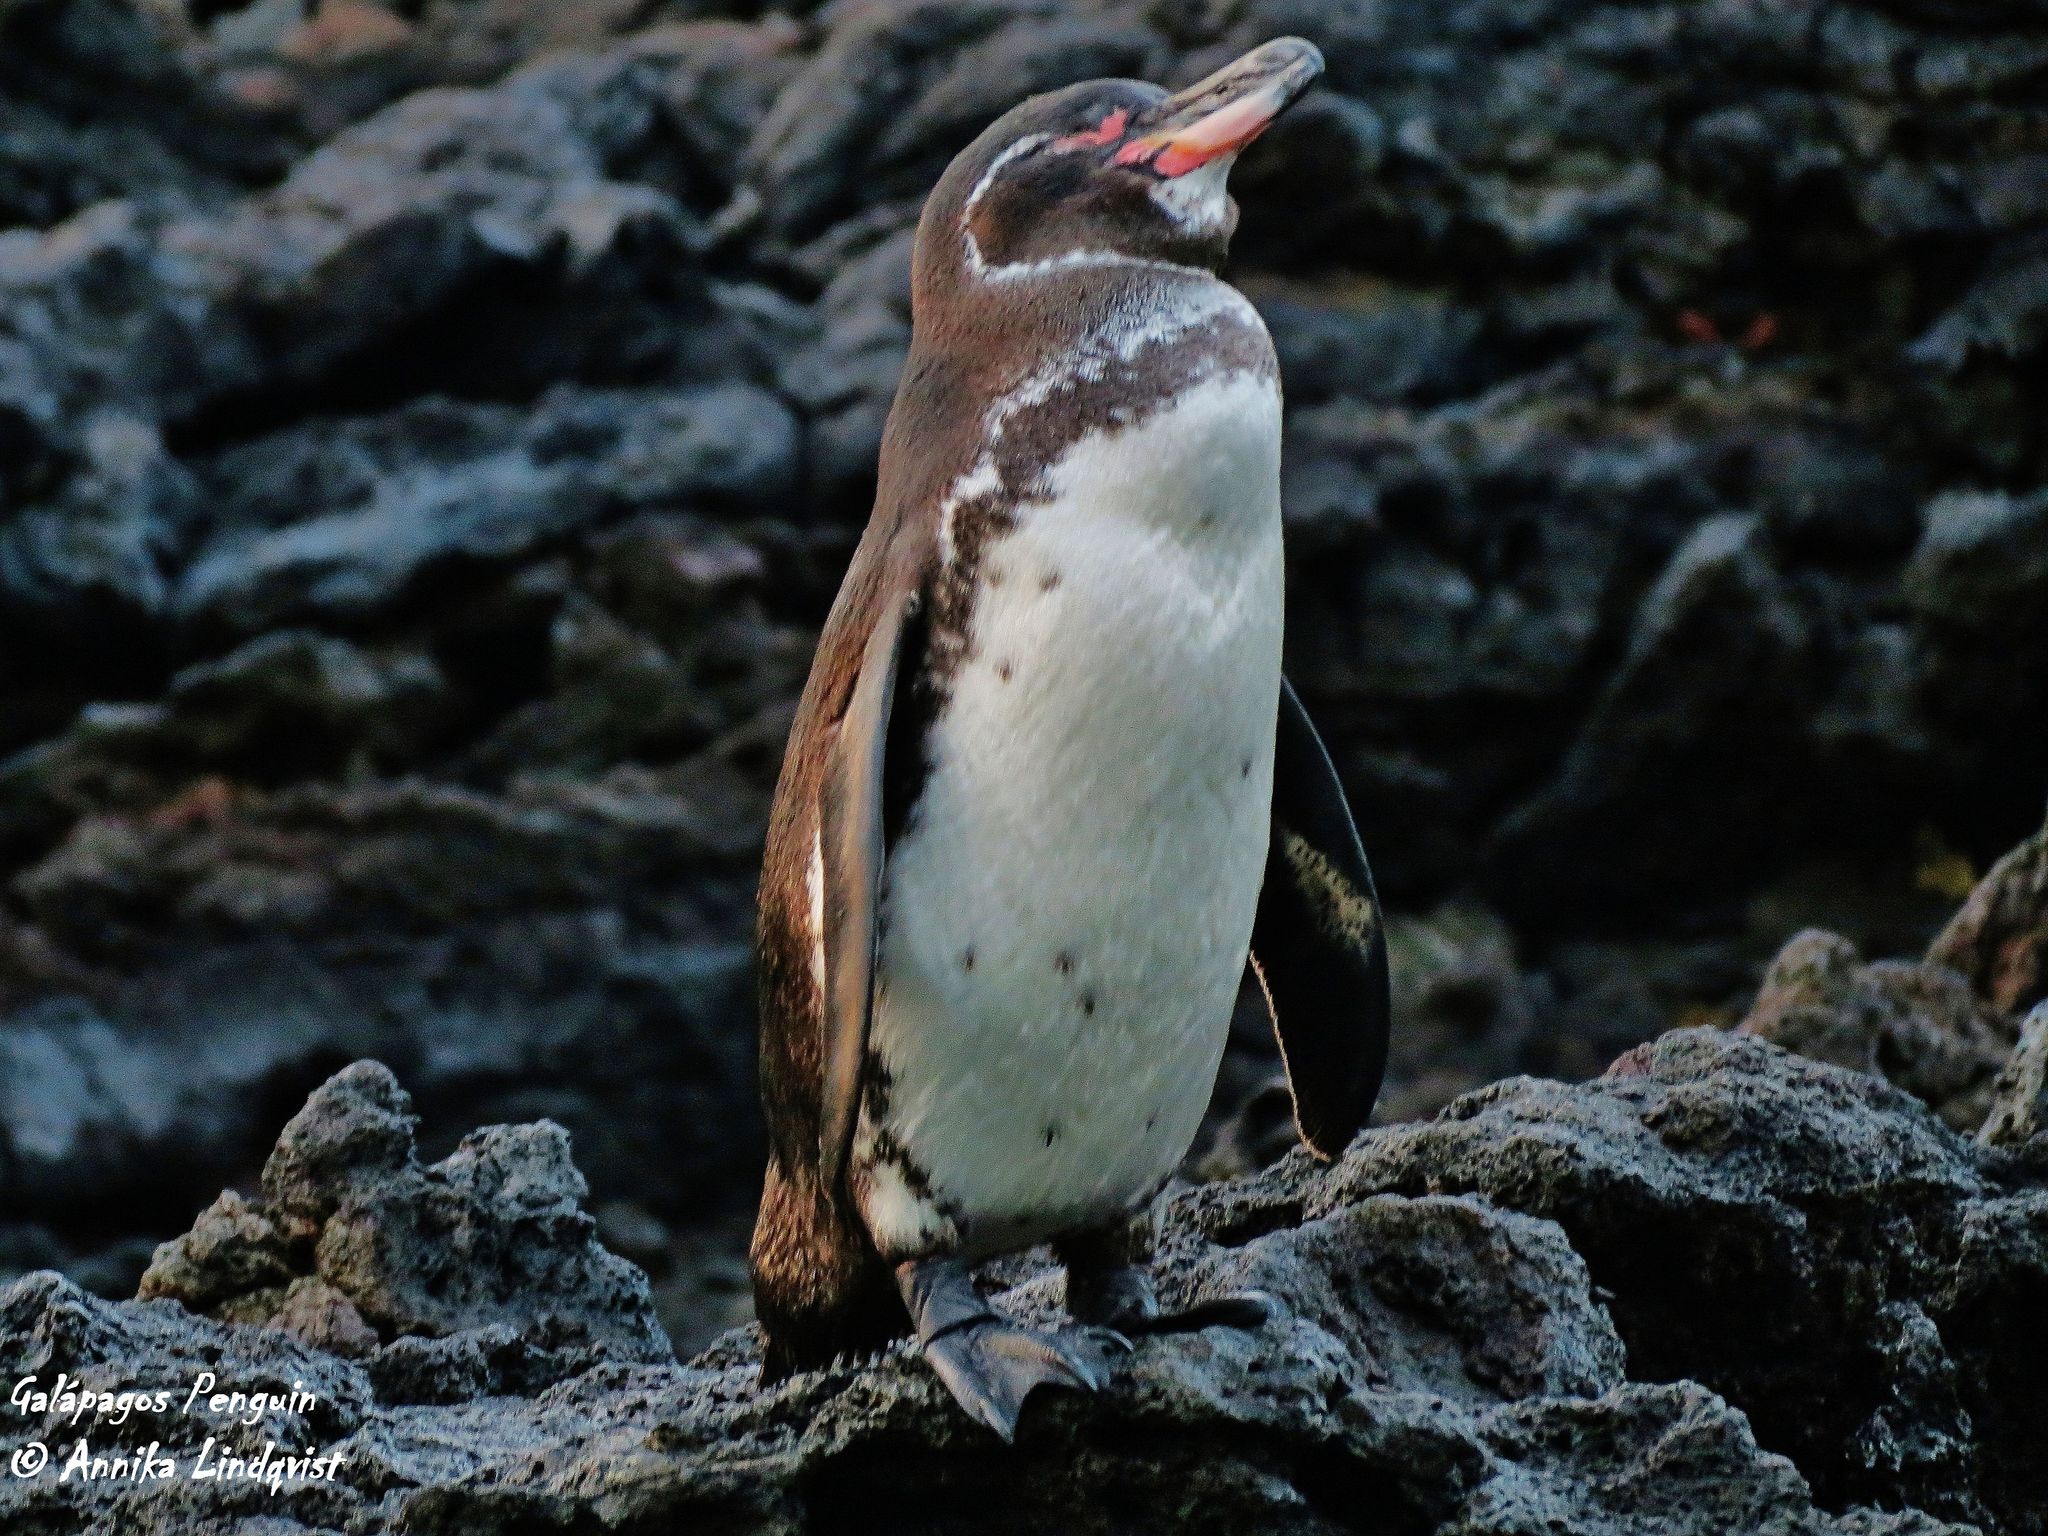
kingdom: Animalia
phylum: Chordata
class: Aves
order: Sphenisciformes
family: Spheniscidae
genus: Spheniscus
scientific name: Spheniscus mendiculus
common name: Galapagos penguin
